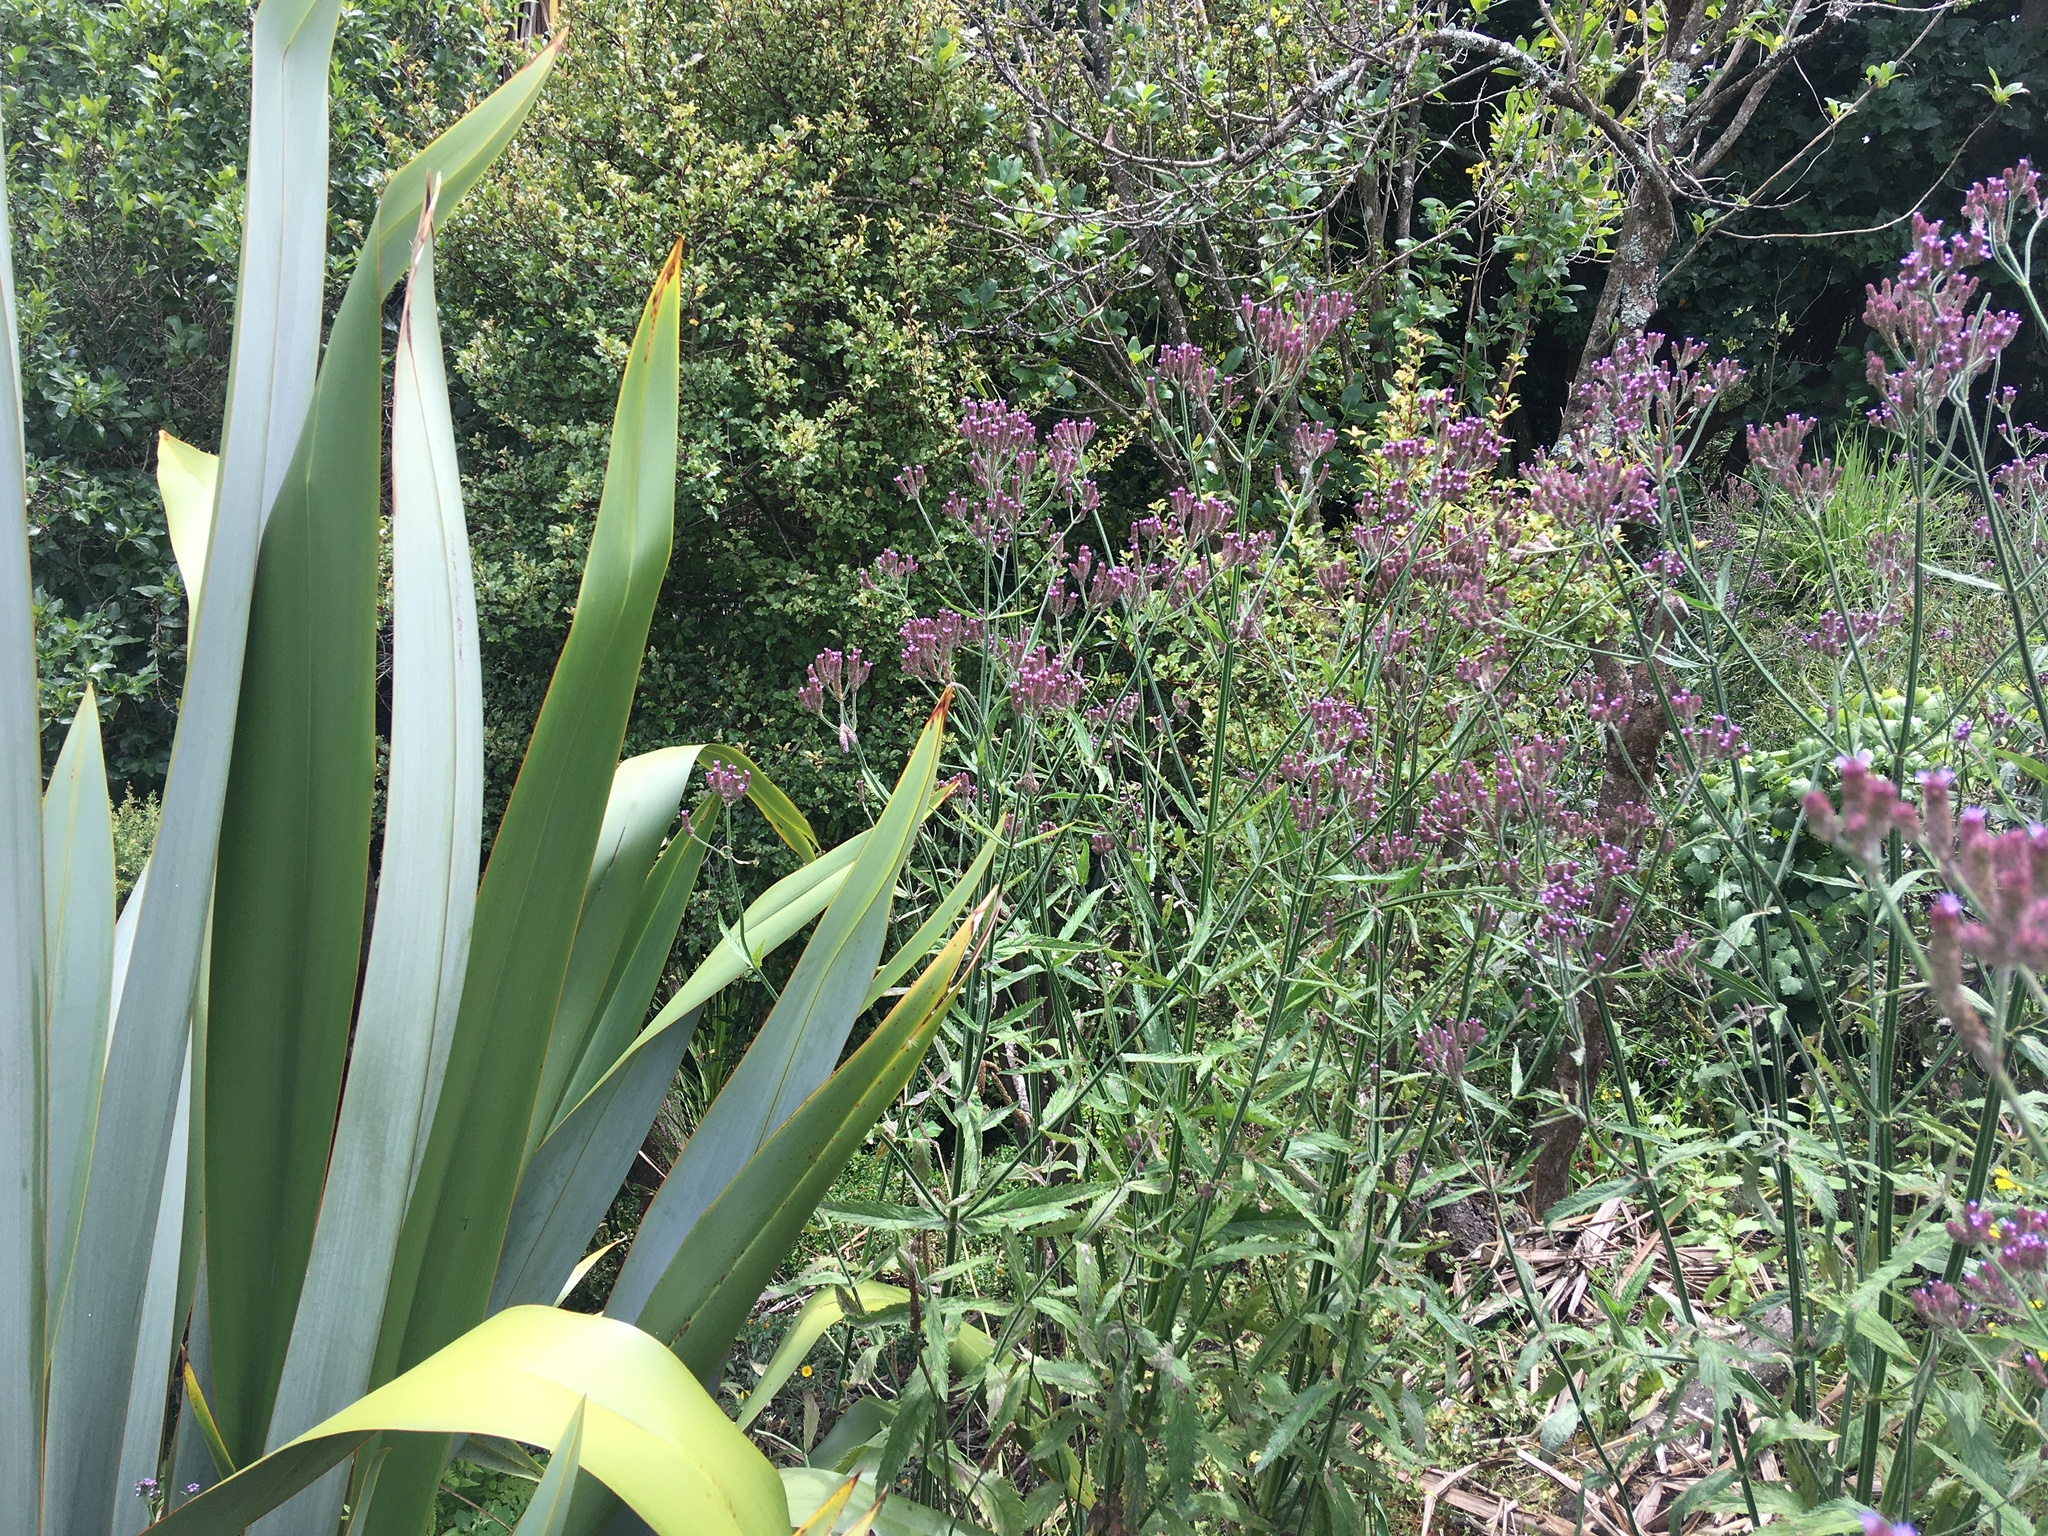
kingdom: Plantae
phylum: Tracheophyta
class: Magnoliopsida
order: Lamiales
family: Verbenaceae
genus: Verbena
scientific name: Verbena incompta
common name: Purpletop vervain
